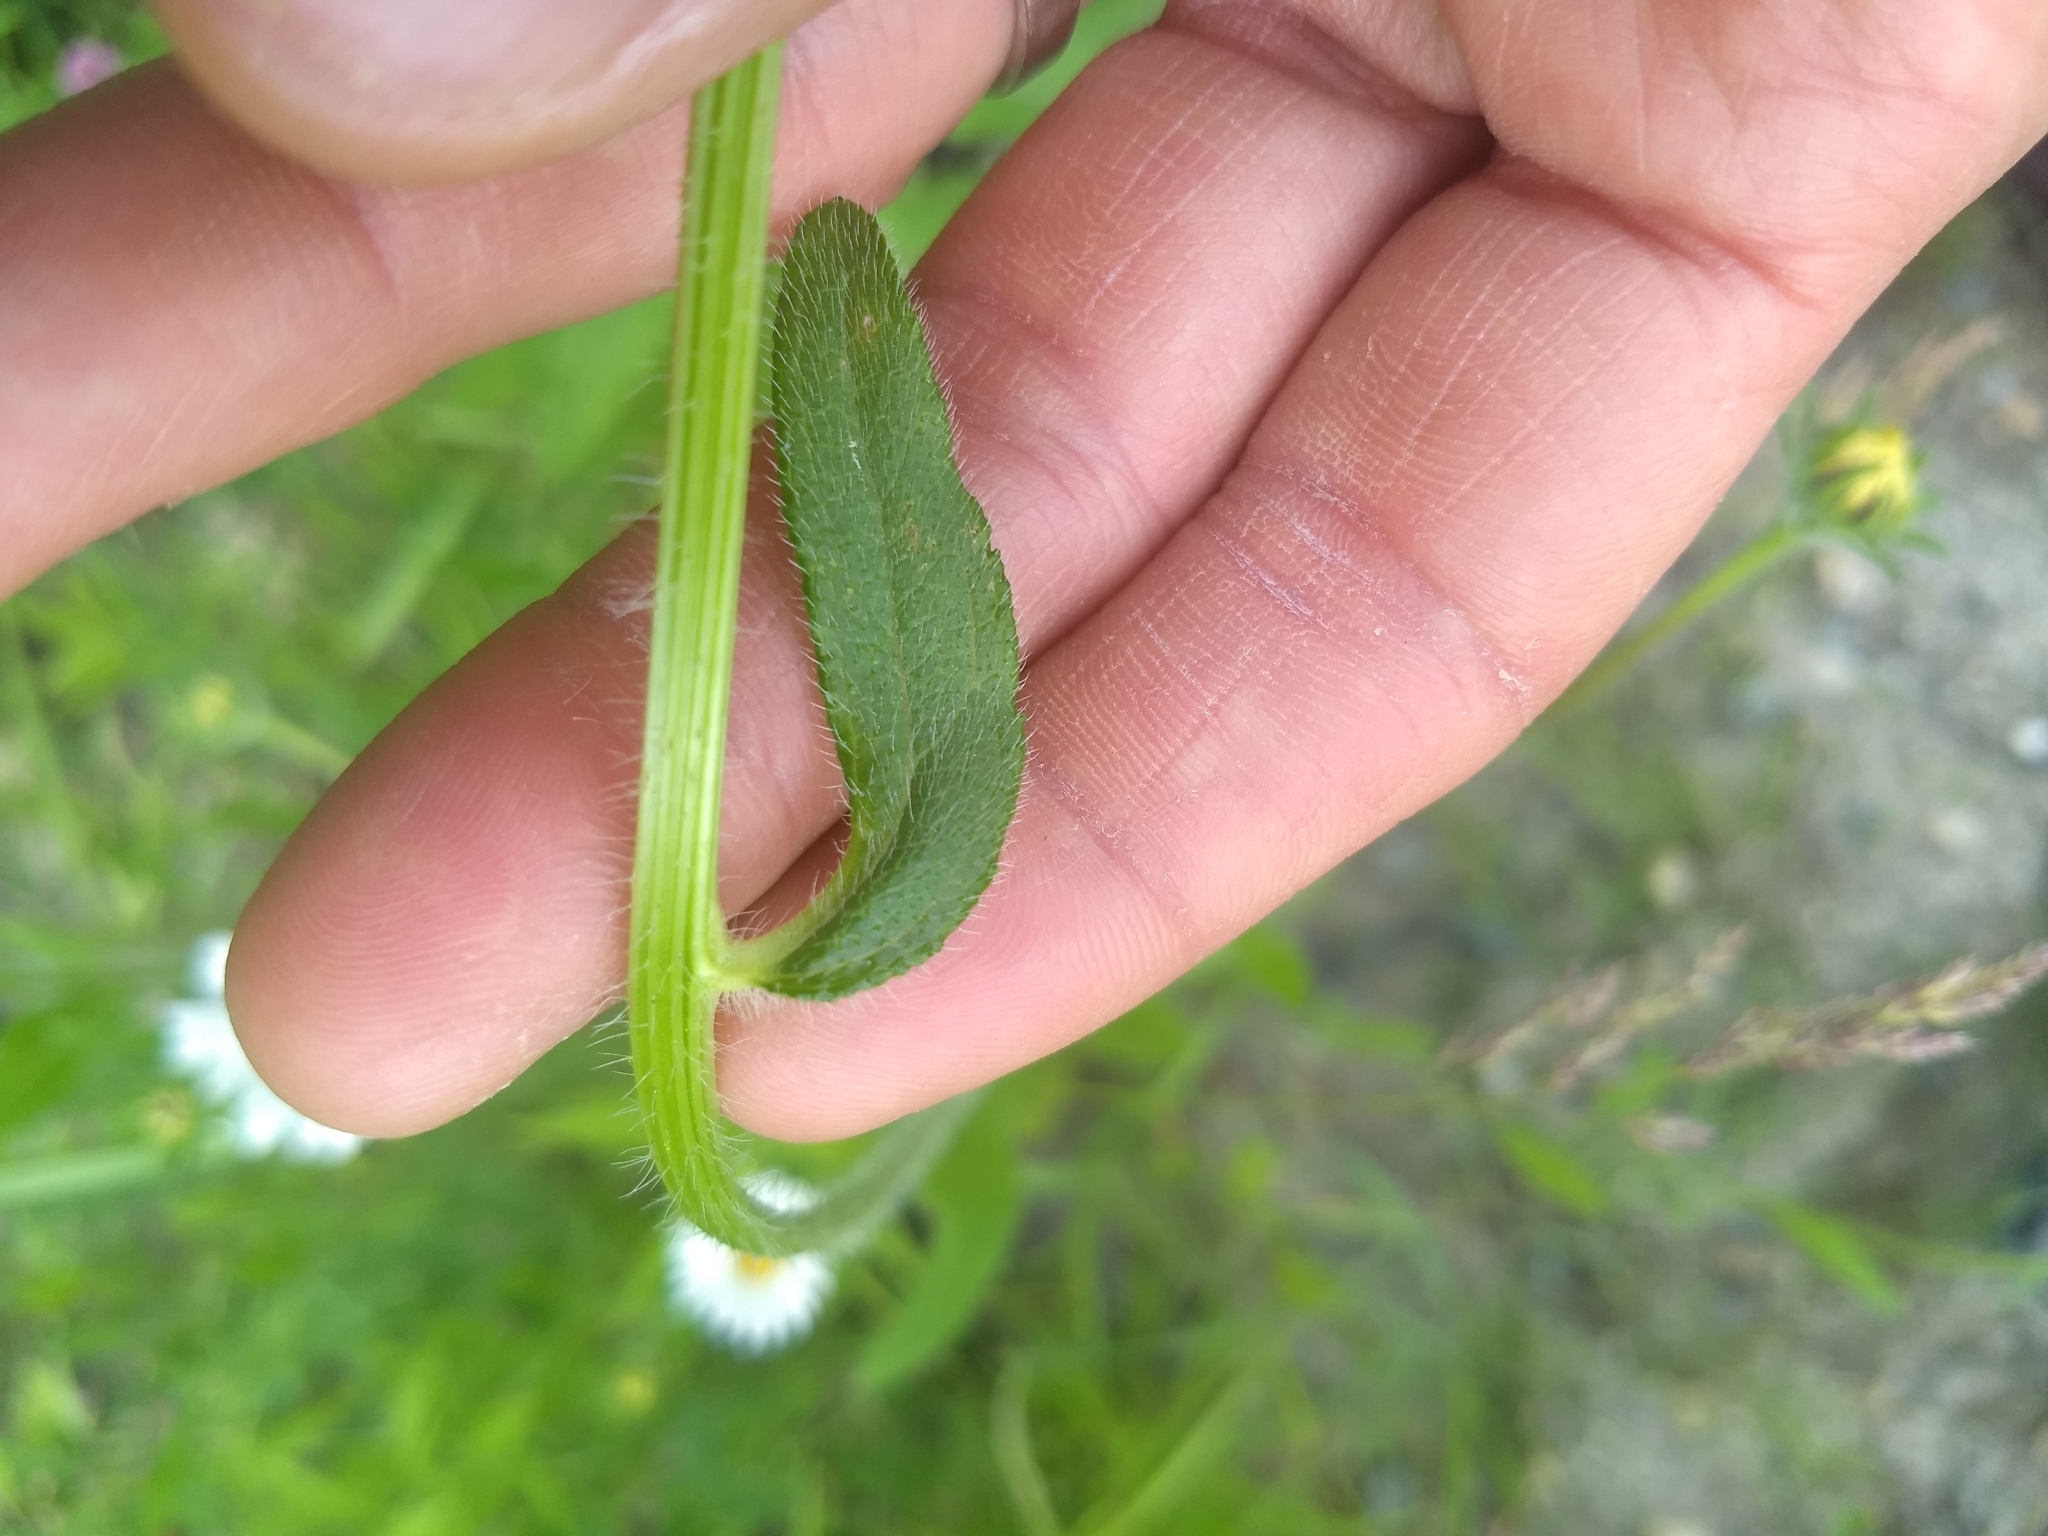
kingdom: Plantae
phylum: Tracheophyta
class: Magnoliopsida
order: Asterales
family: Asteraceae
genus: Rudbeckia
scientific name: Rudbeckia hirta
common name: Black-eyed-susan
